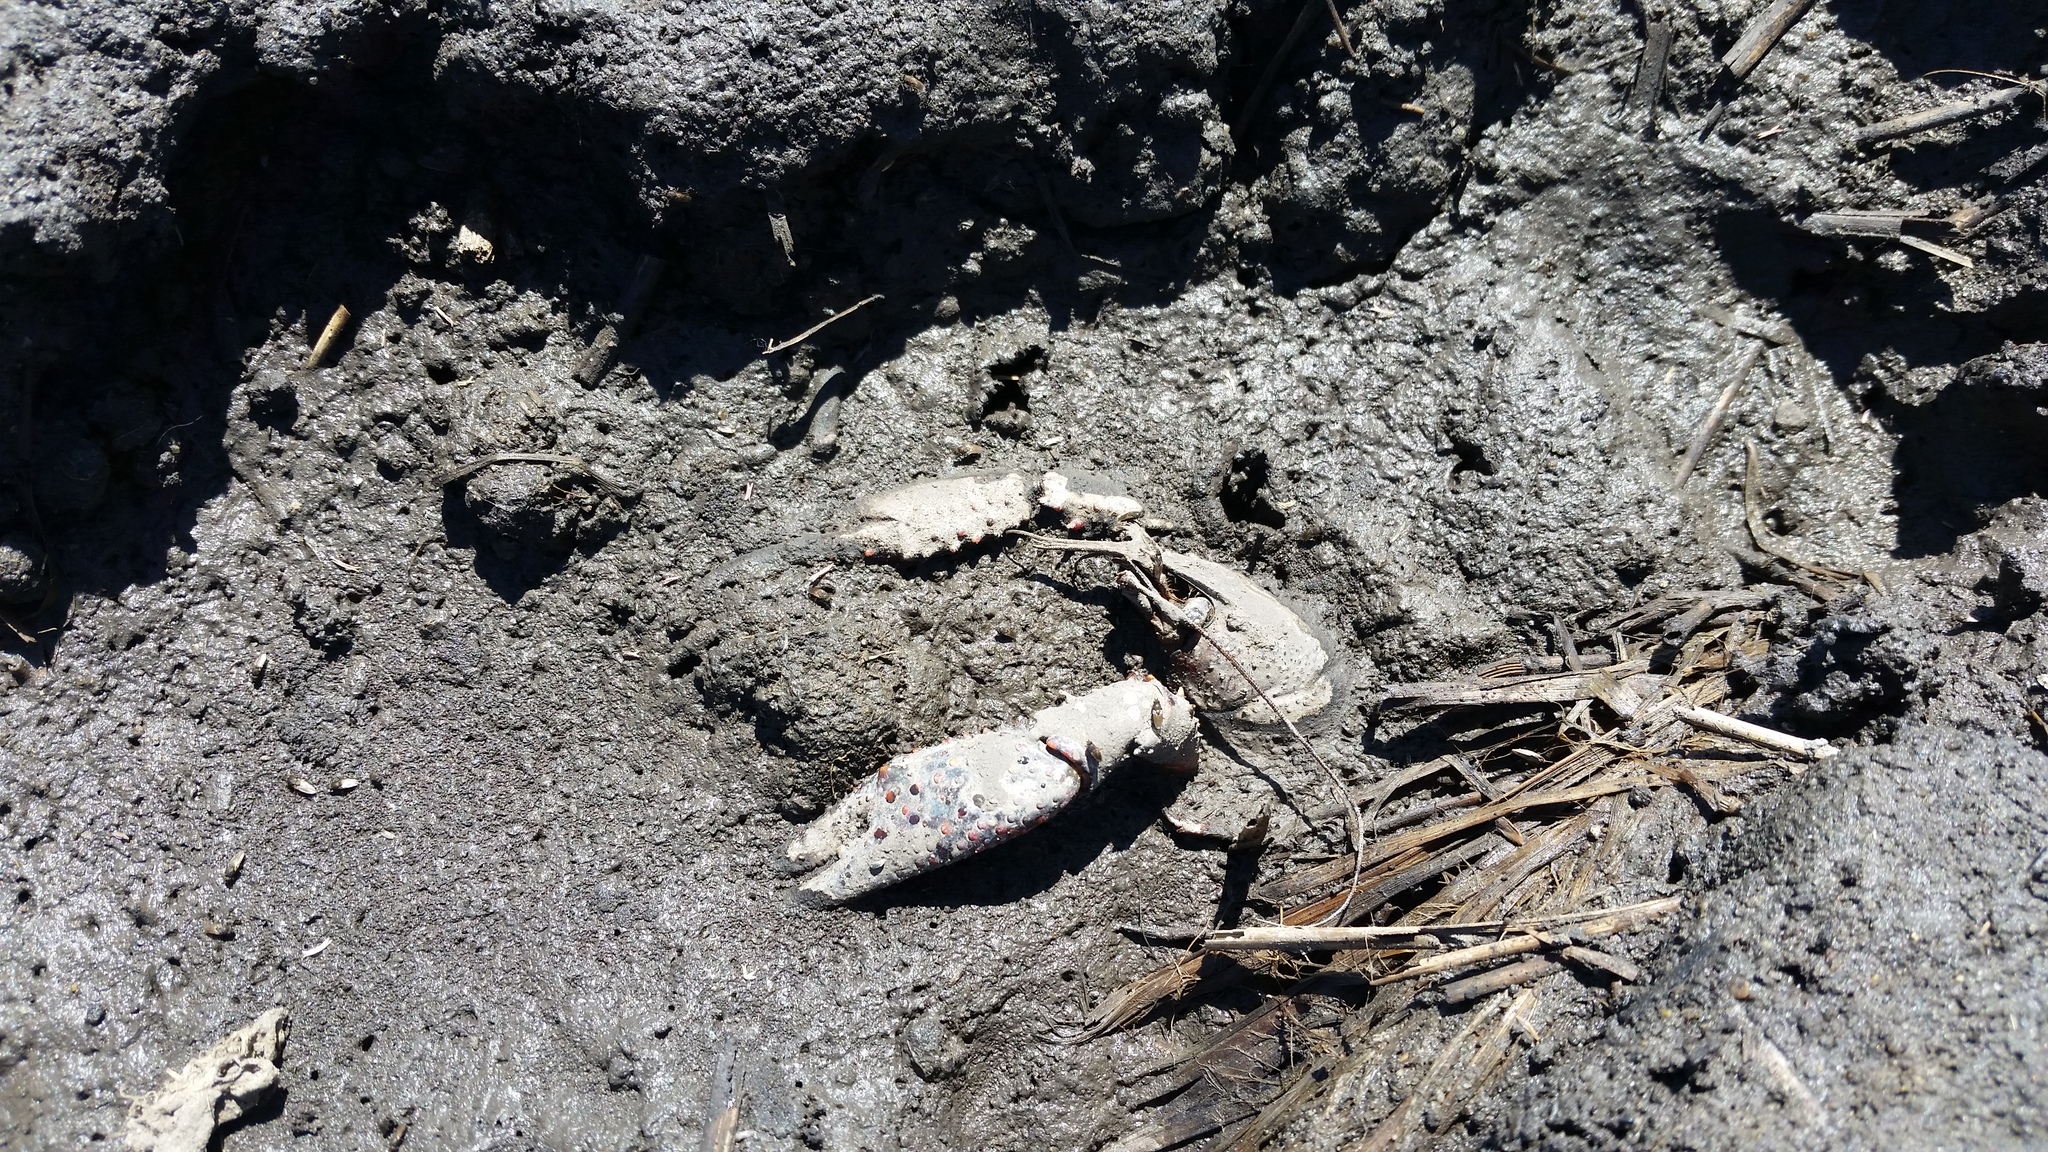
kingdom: Animalia
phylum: Arthropoda
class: Malacostraca
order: Decapoda
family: Cambaridae
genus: Procambarus
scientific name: Procambarus clarkii
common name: Red swamp crayfish
